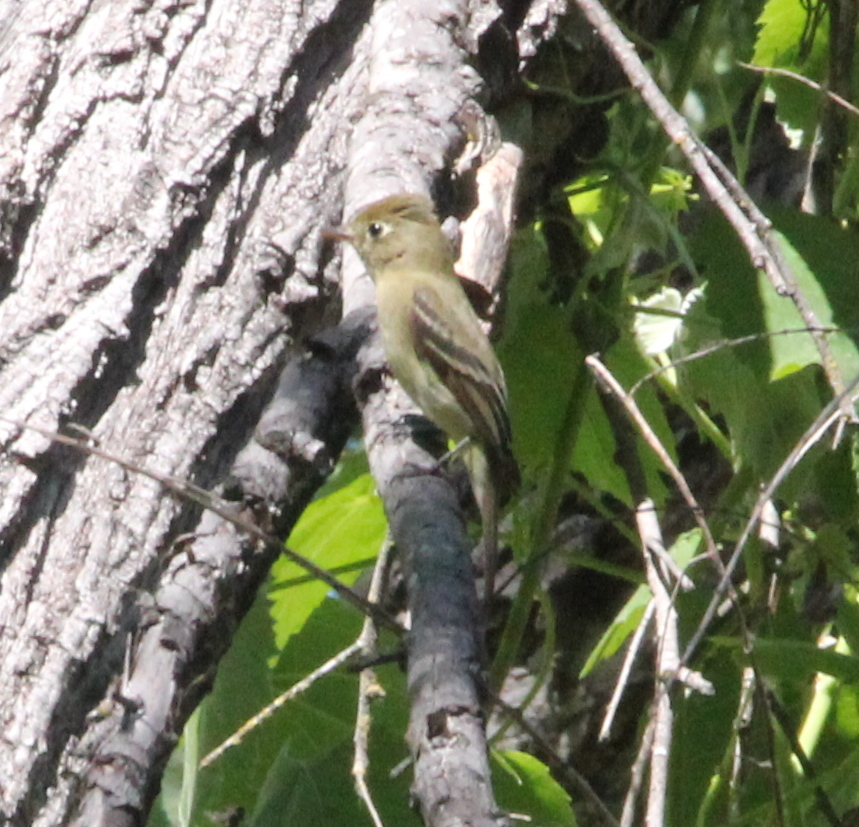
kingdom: Animalia
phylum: Chordata
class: Aves
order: Passeriformes
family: Tyrannidae
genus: Empidonax
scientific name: Empidonax difficilis
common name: Pacific-slope flycatcher
